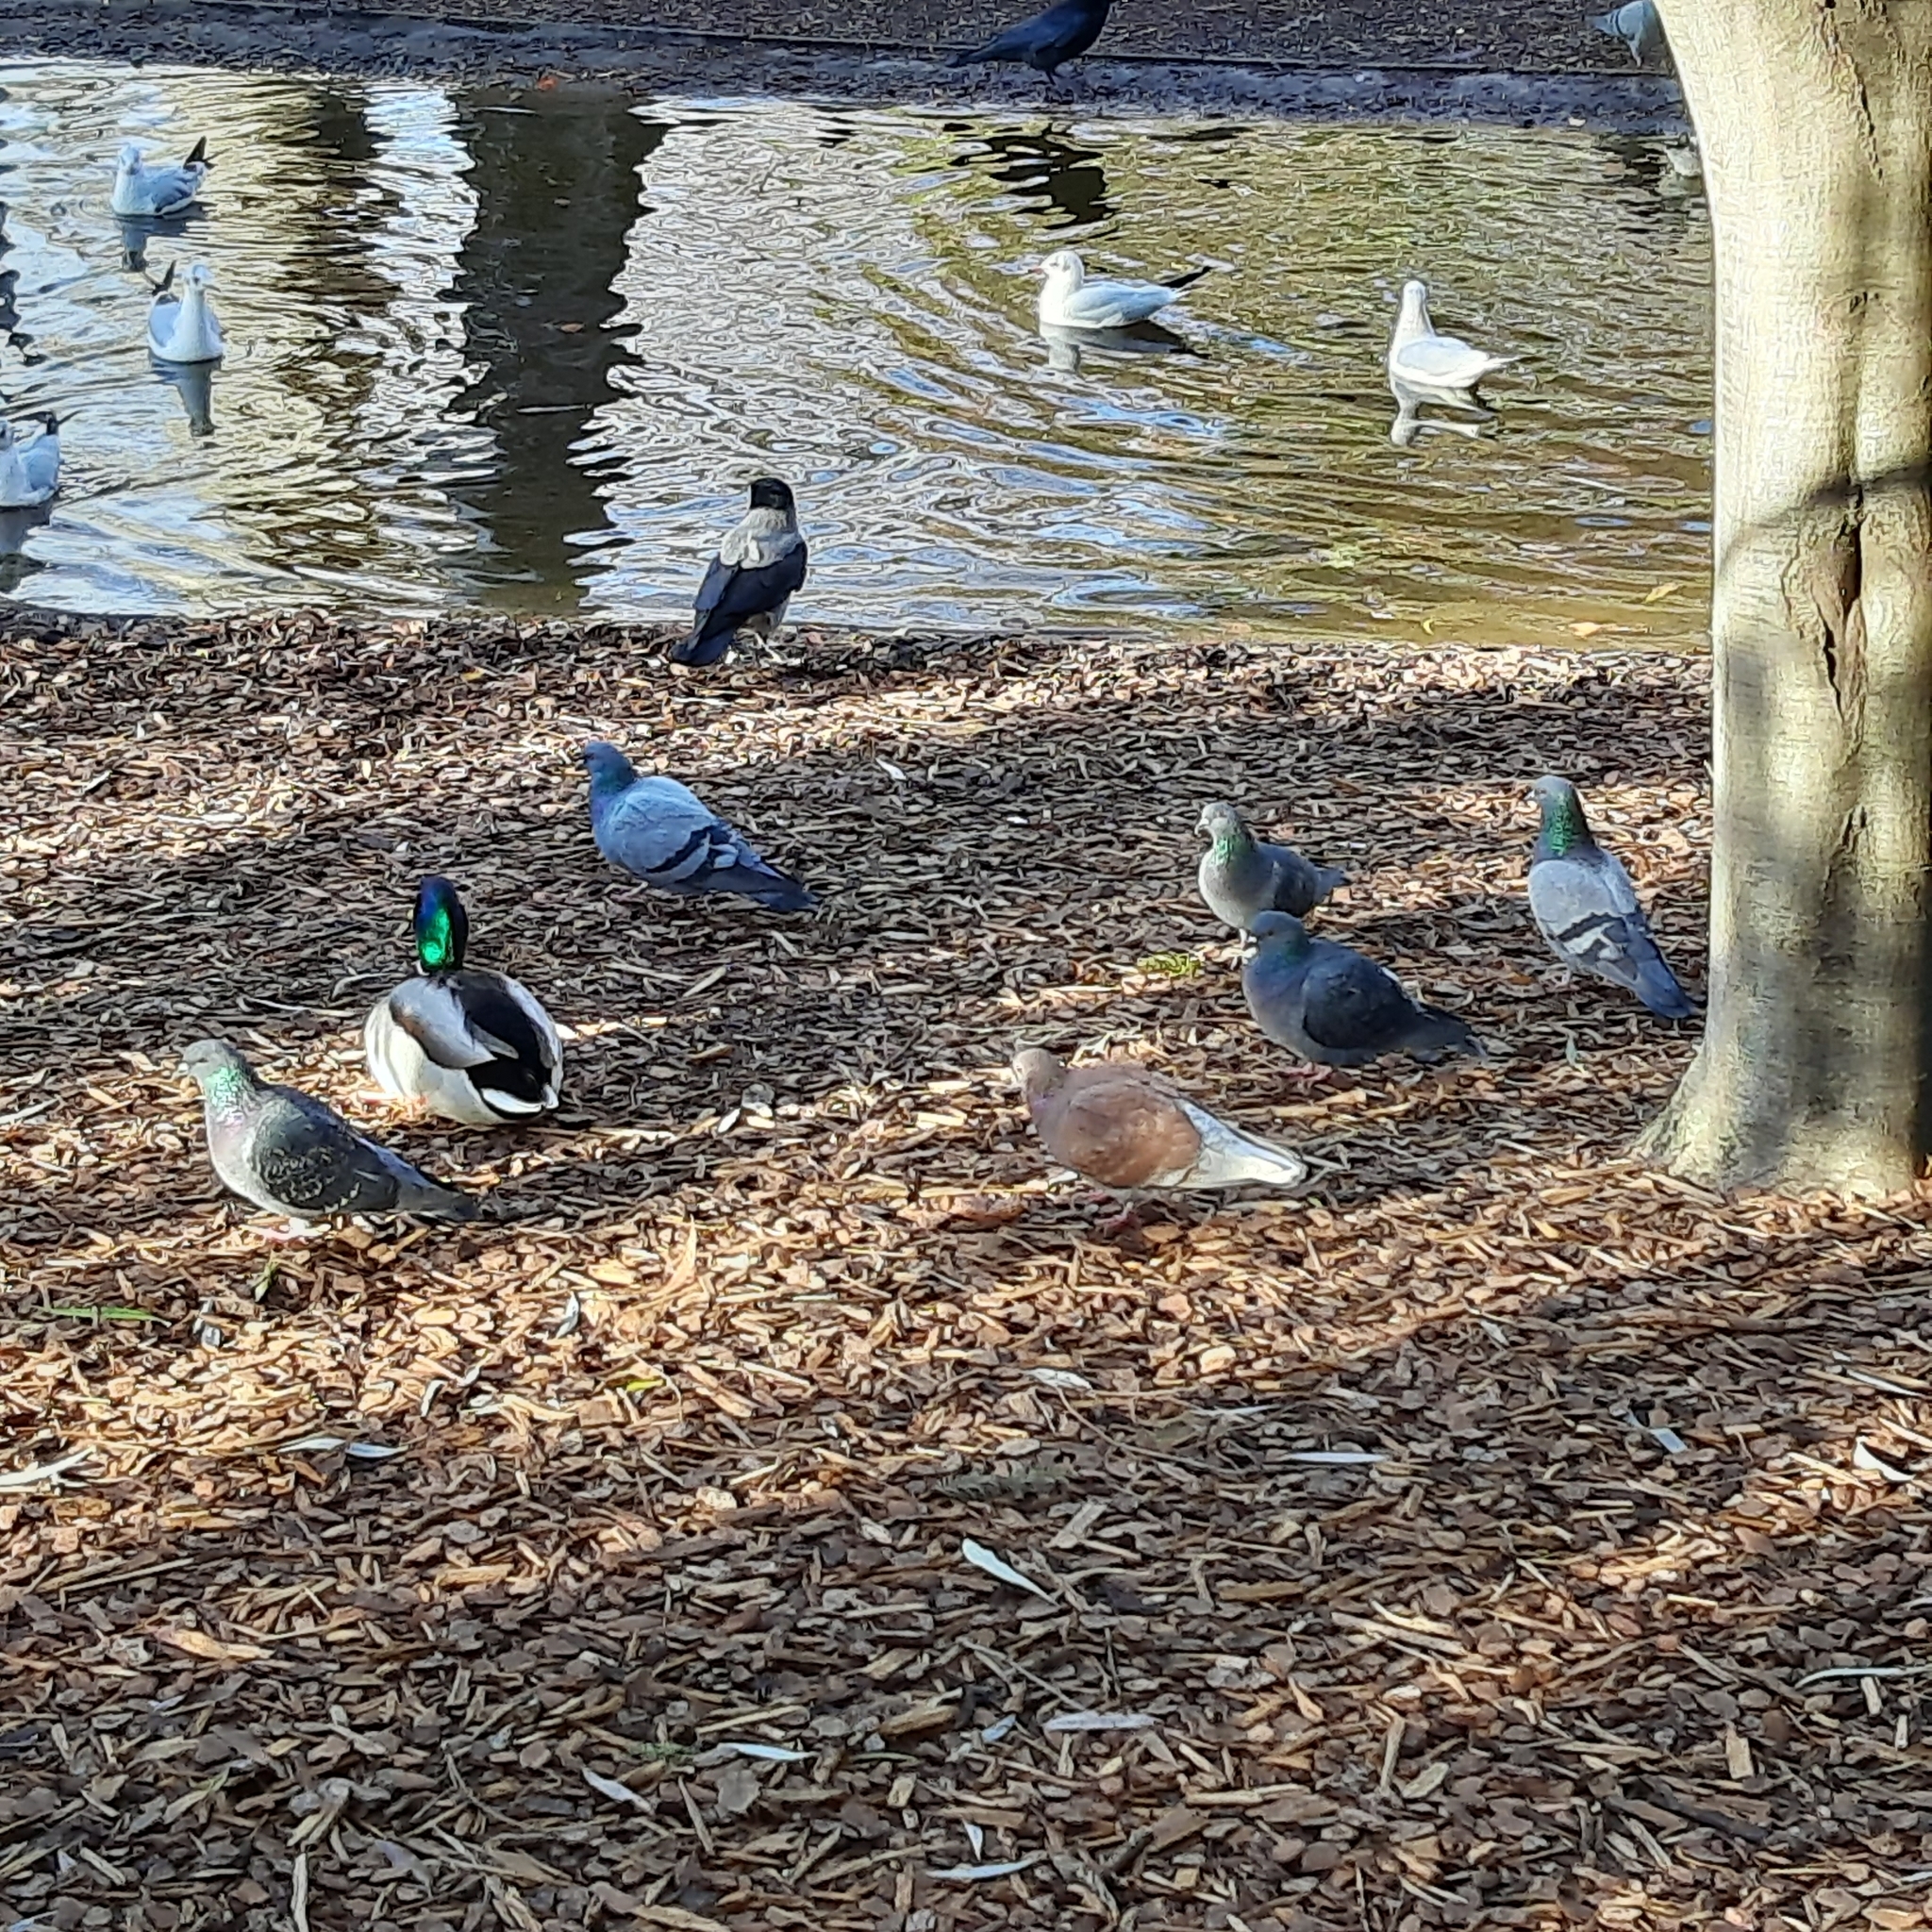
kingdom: Animalia
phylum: Chordata
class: Aves
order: Charadriiformes
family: Laridae
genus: Chroicocephalus
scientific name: Chroicocephalus ridibundus
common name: Black-headed gull
